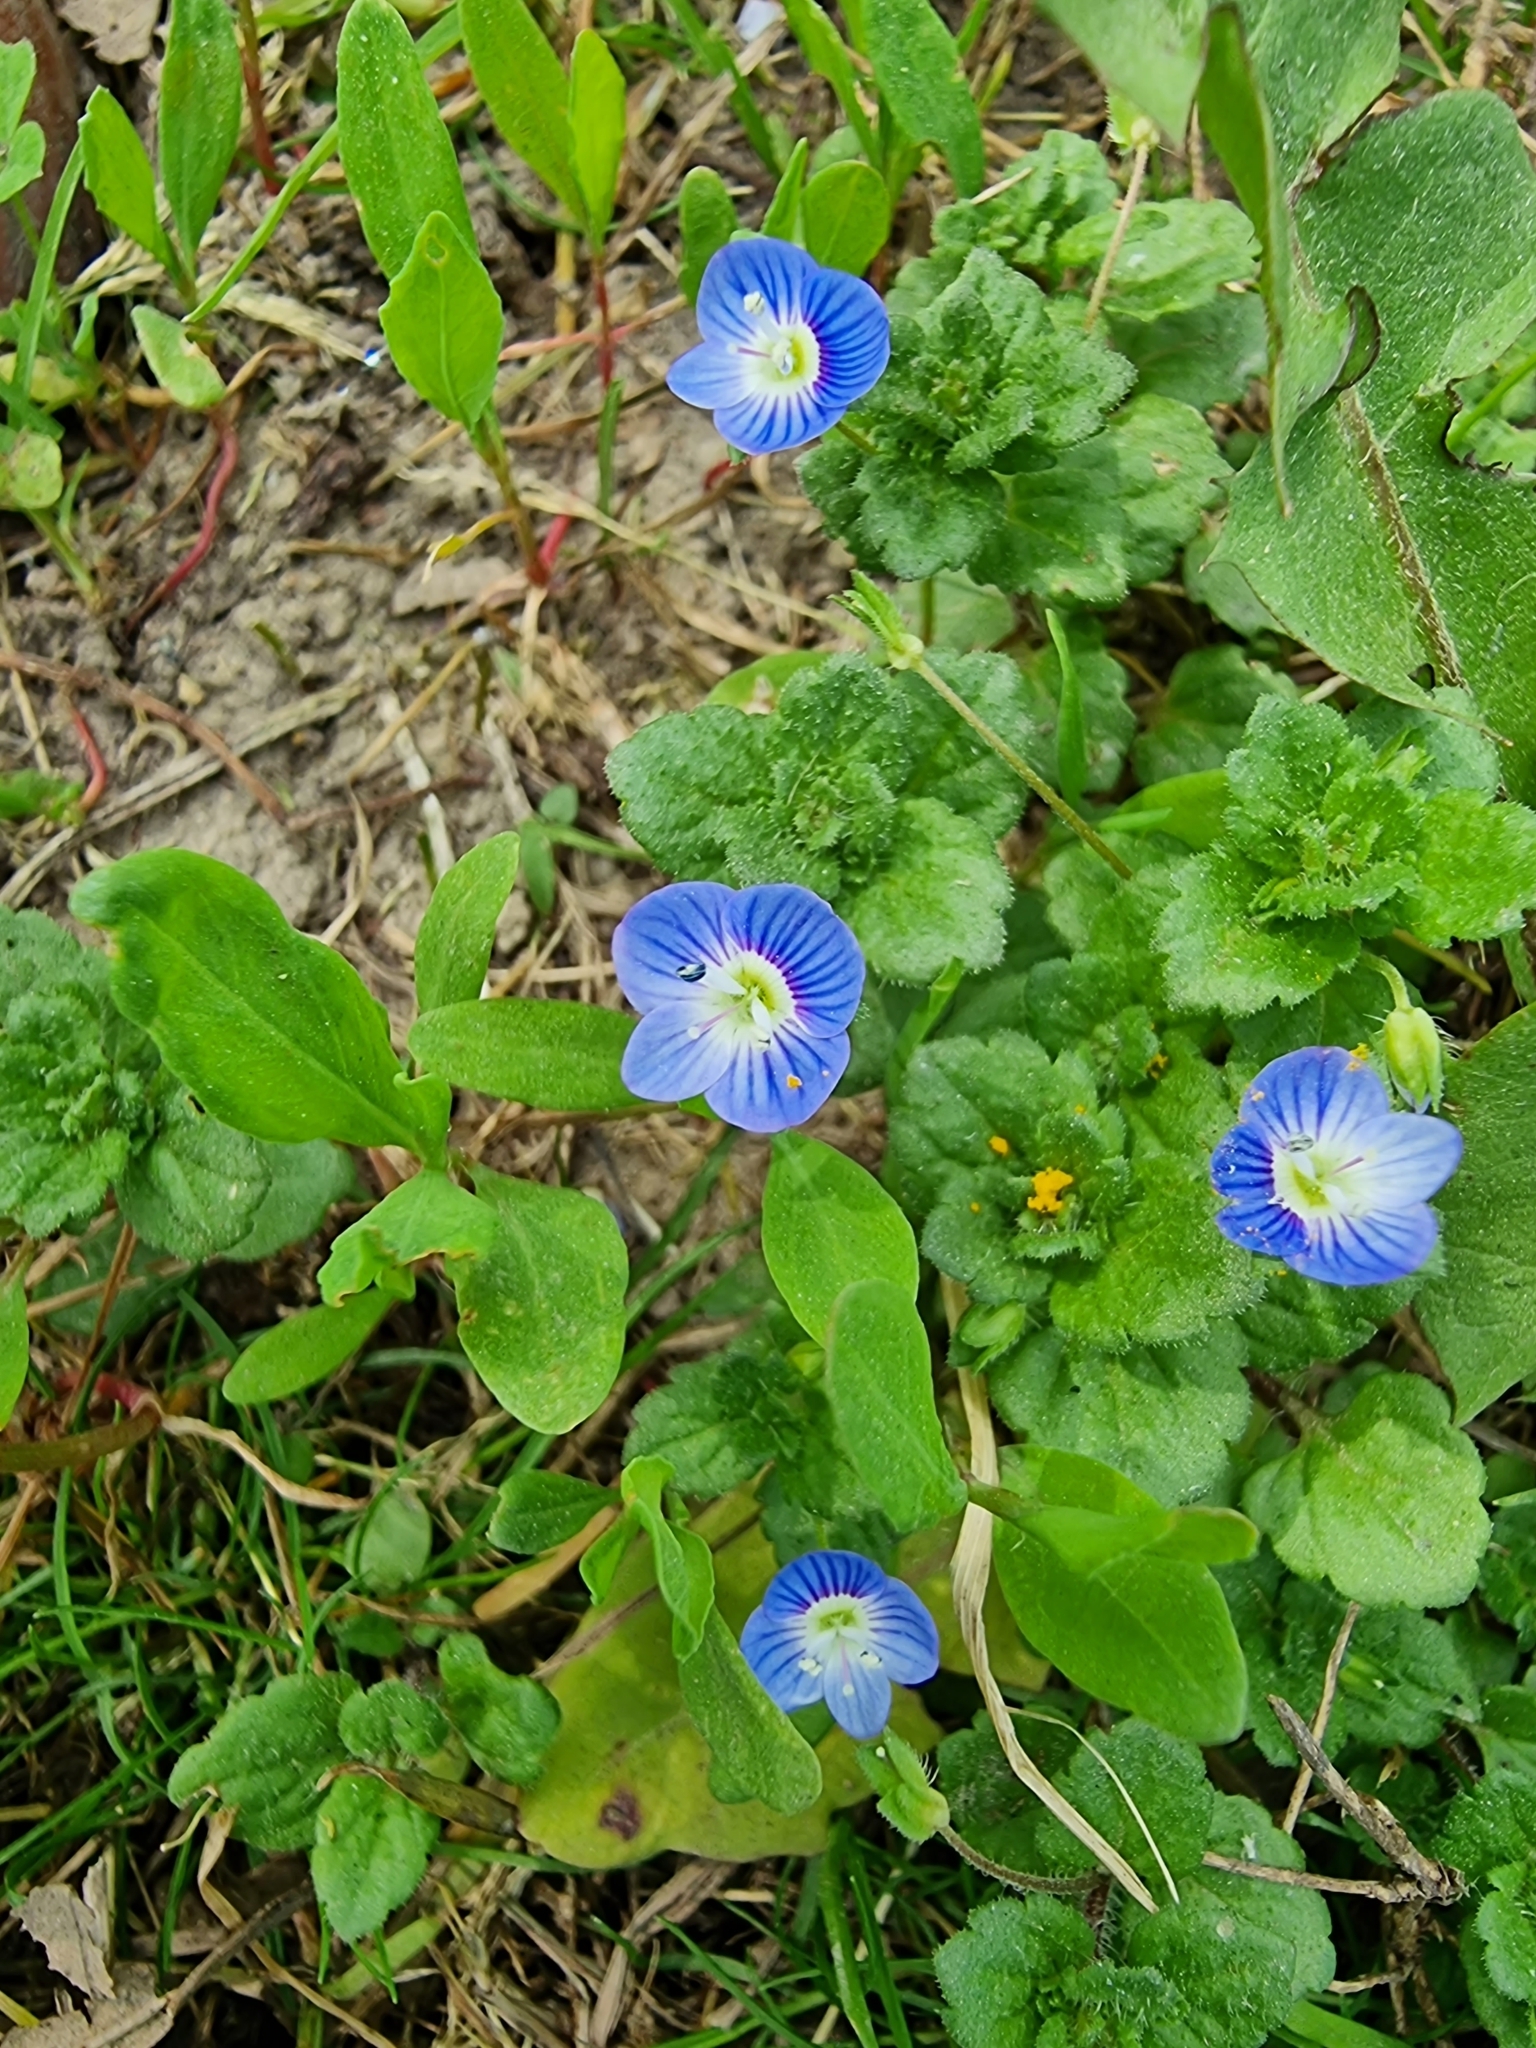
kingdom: Plantae
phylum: Tracheophyta
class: Magnoliopsida
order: Lamiales
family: Plantaginaceae
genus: Veronica
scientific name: Veronica persica
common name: Common field-speedwell
